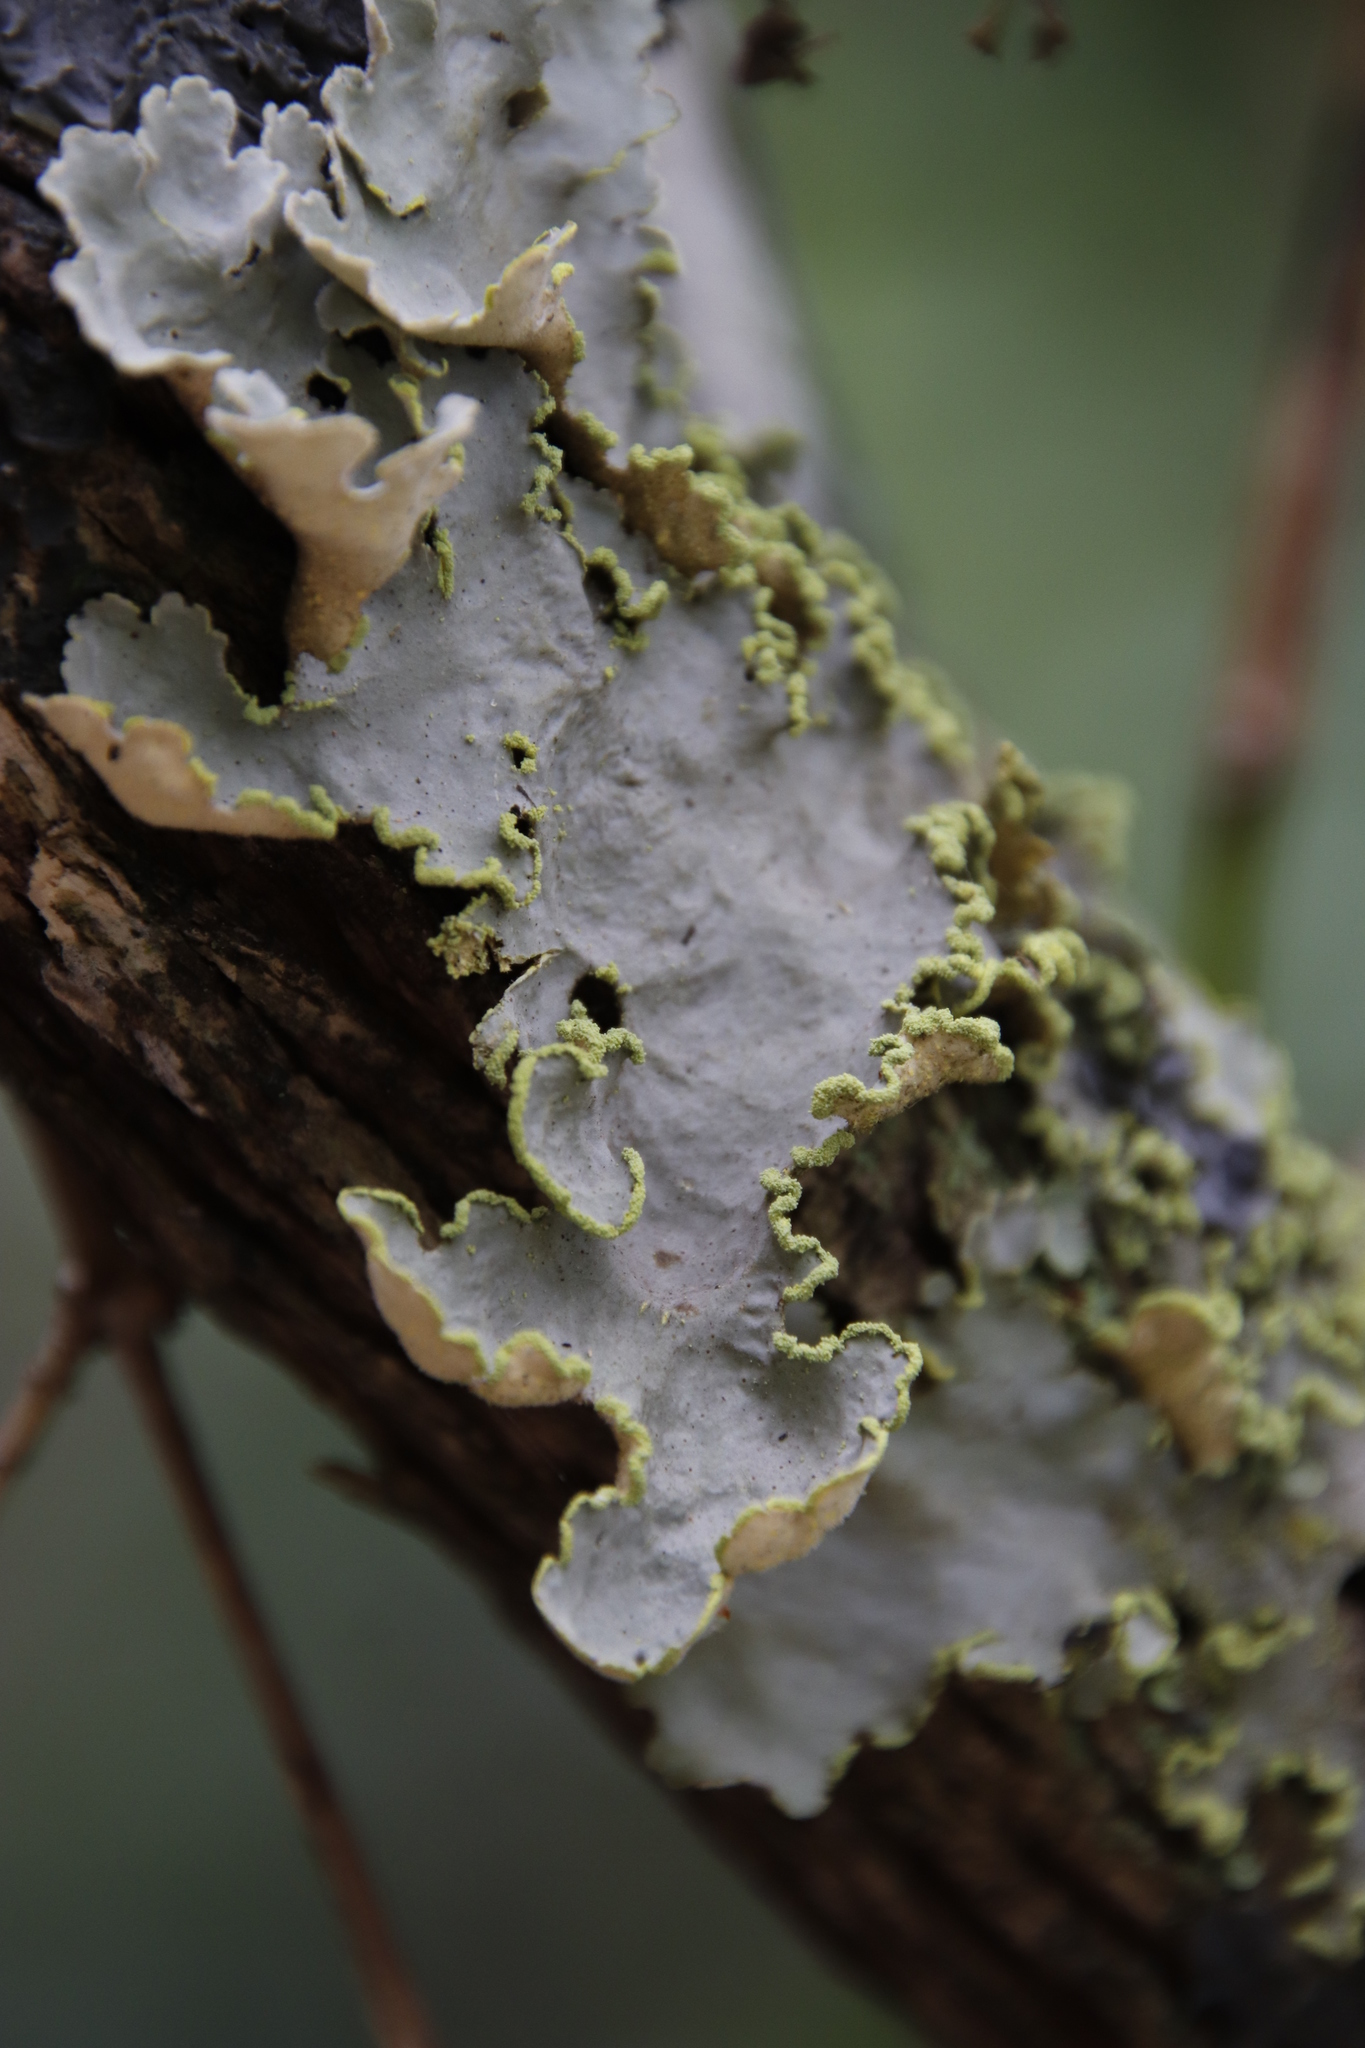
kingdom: Fungi
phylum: Ascomycota
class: Lecanoromycetes
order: Peltigerales
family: Lobariaceae
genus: Pseudocyphellaria
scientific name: Pseudocyphellaria aurata
